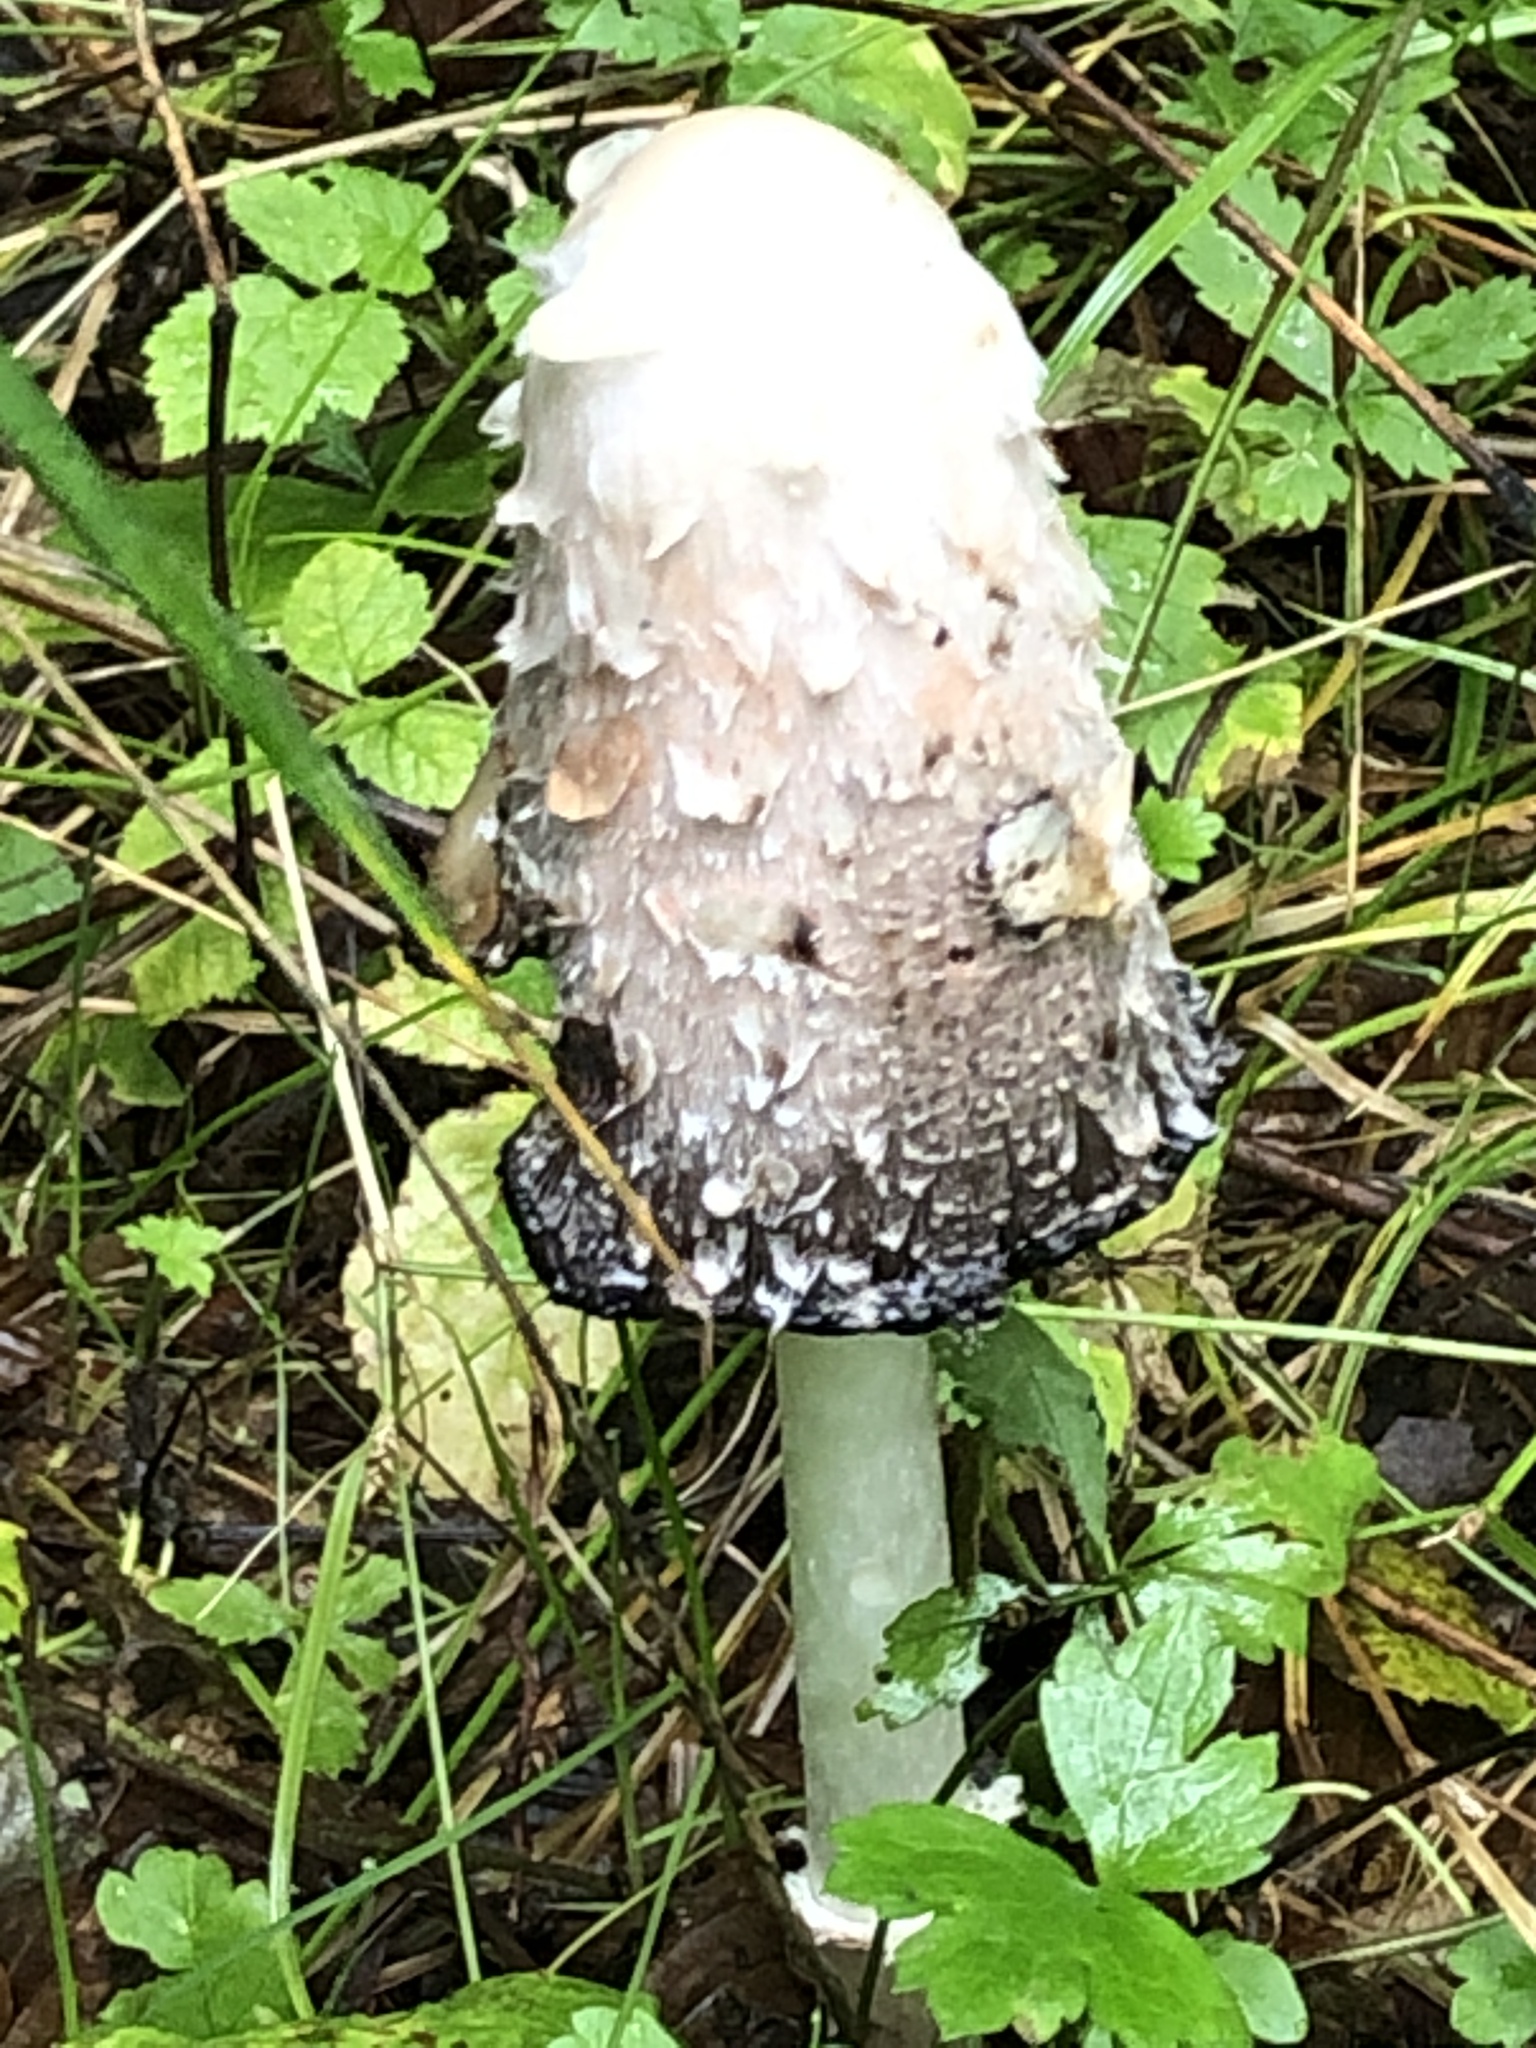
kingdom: Fungi
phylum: Basidiomycota
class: Agaricomycetes
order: Agaricales
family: Agaricaceae
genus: Coprinus
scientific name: Coprinus comatus
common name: Lawyer's wig
